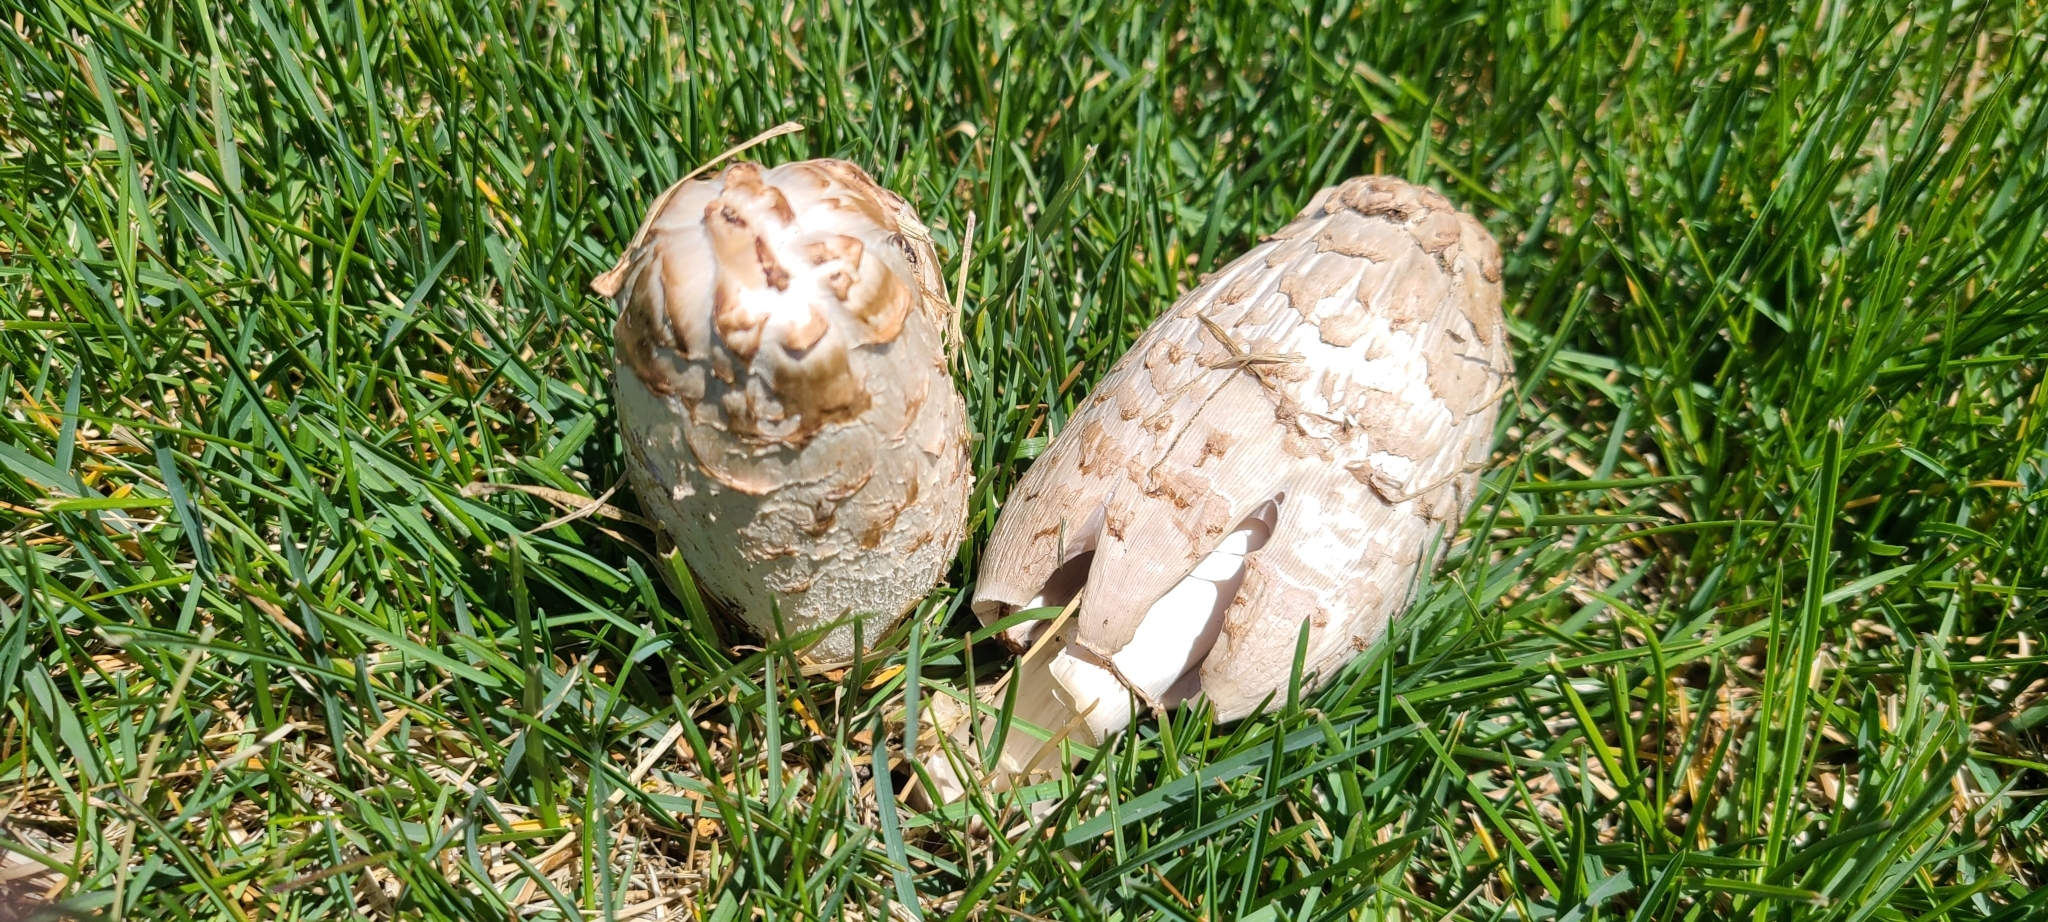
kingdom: Fungi
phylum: Basidiomycota
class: Agaricomycetes
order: Agaricales
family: Agaricaceae
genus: Coprinus
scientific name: Coprinus comatus
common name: Lawyer's wig
